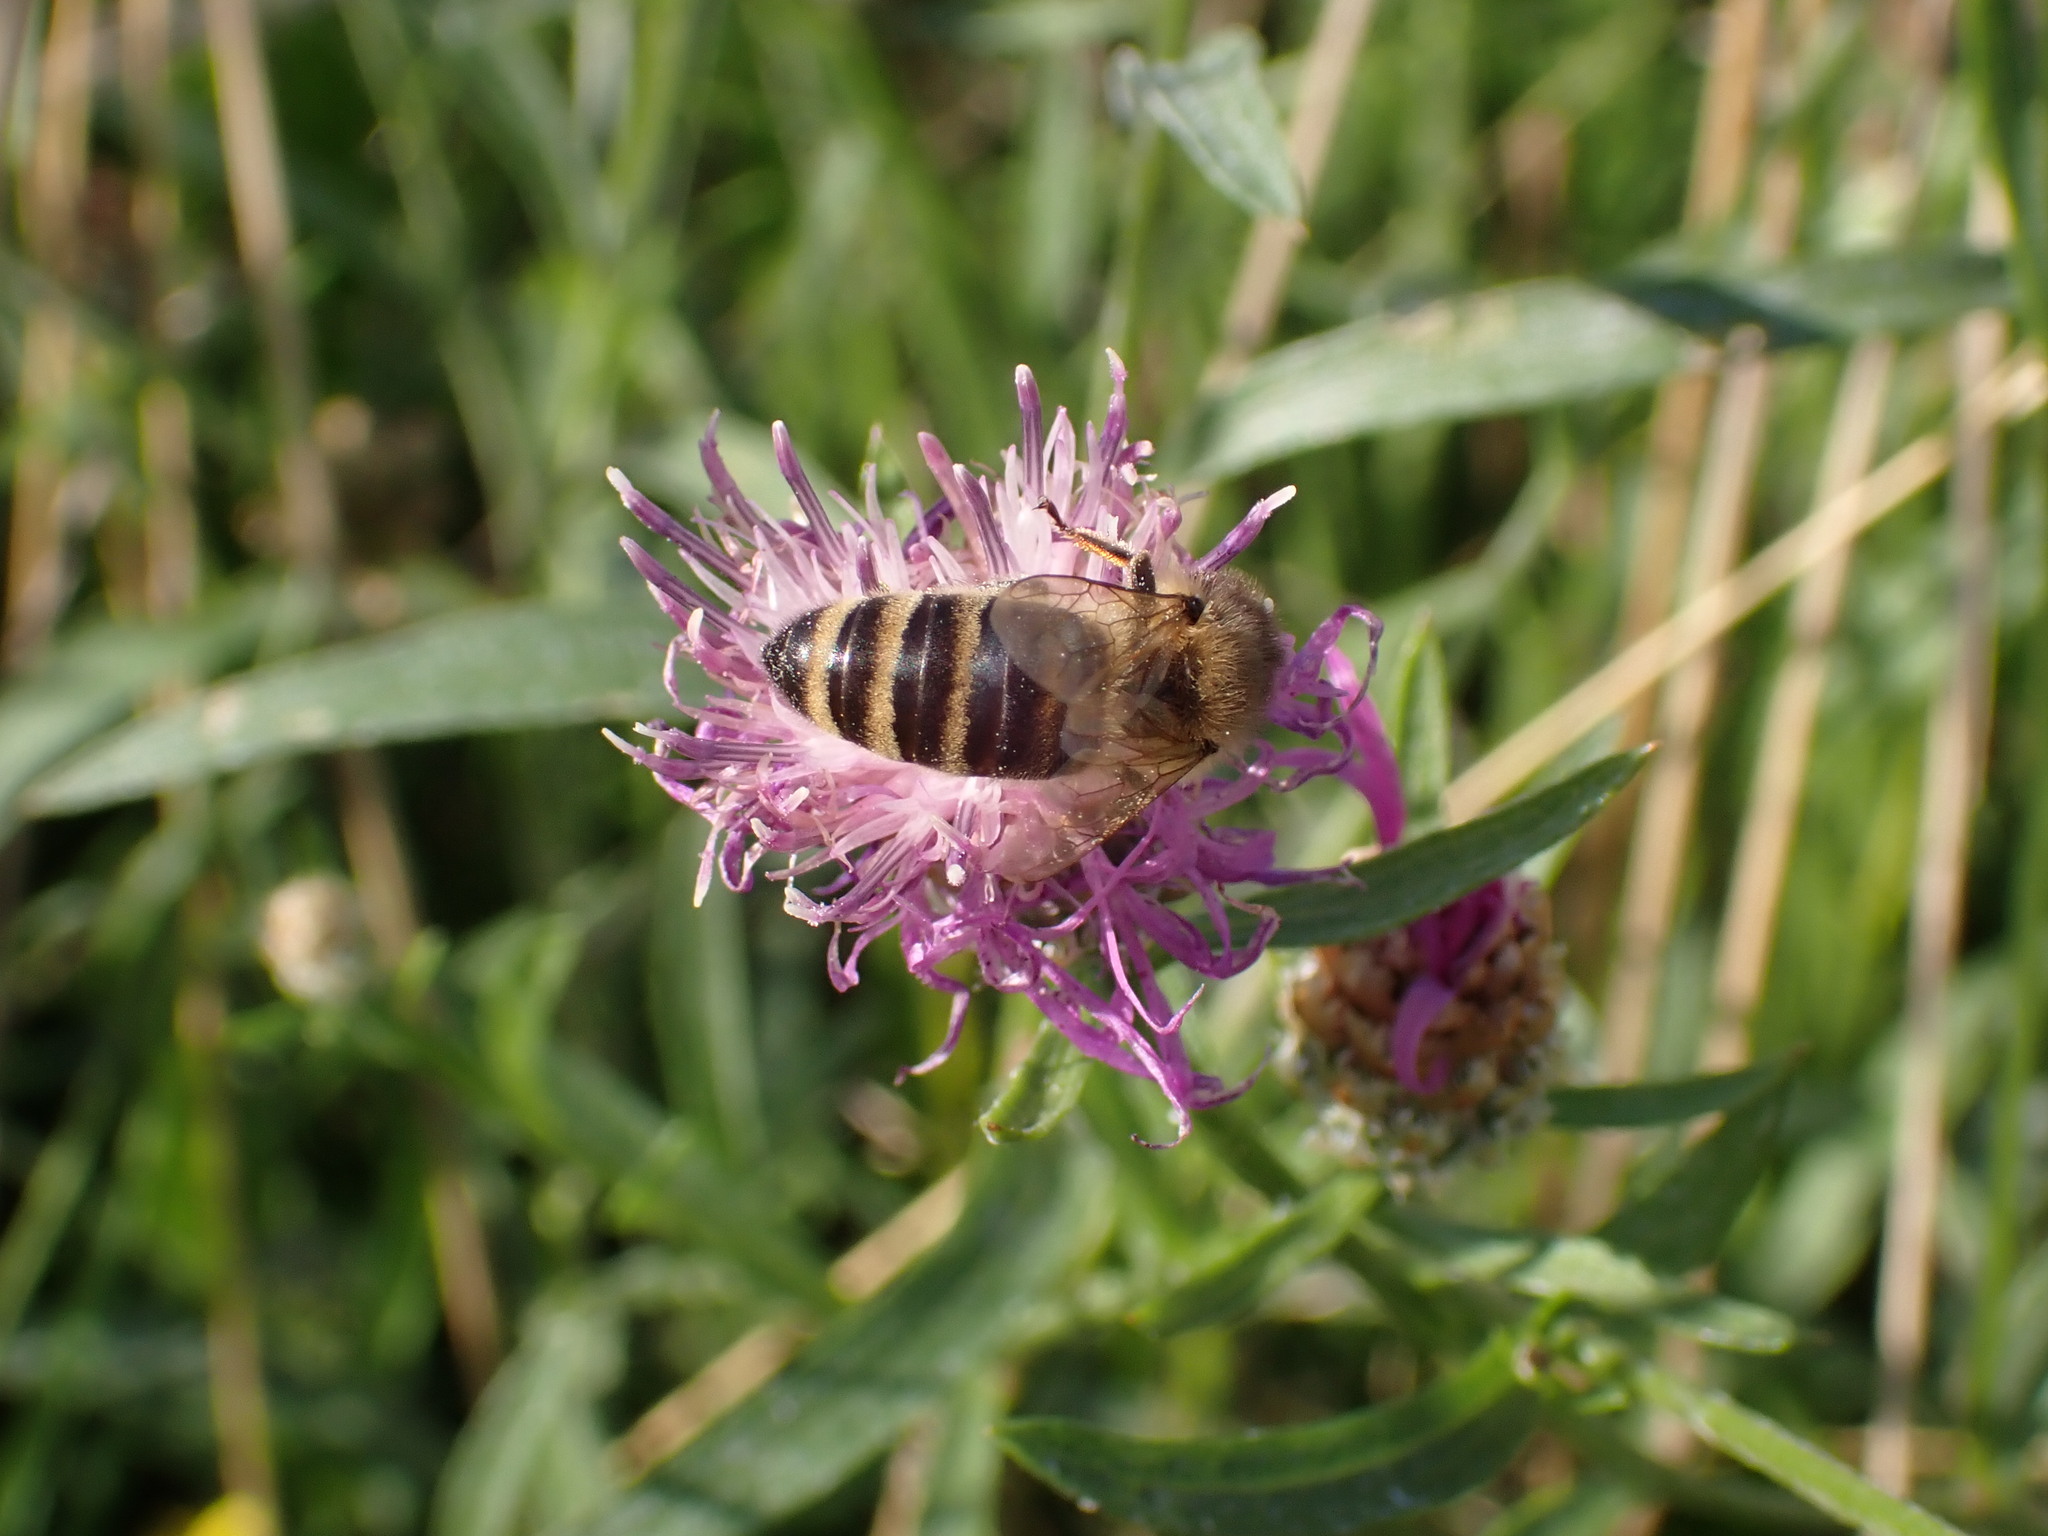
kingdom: Animalia
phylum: Arthropoda
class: Insecta
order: Hymenoptera
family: Apidae
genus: Apis
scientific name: Apis mellifera
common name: Honey bee
